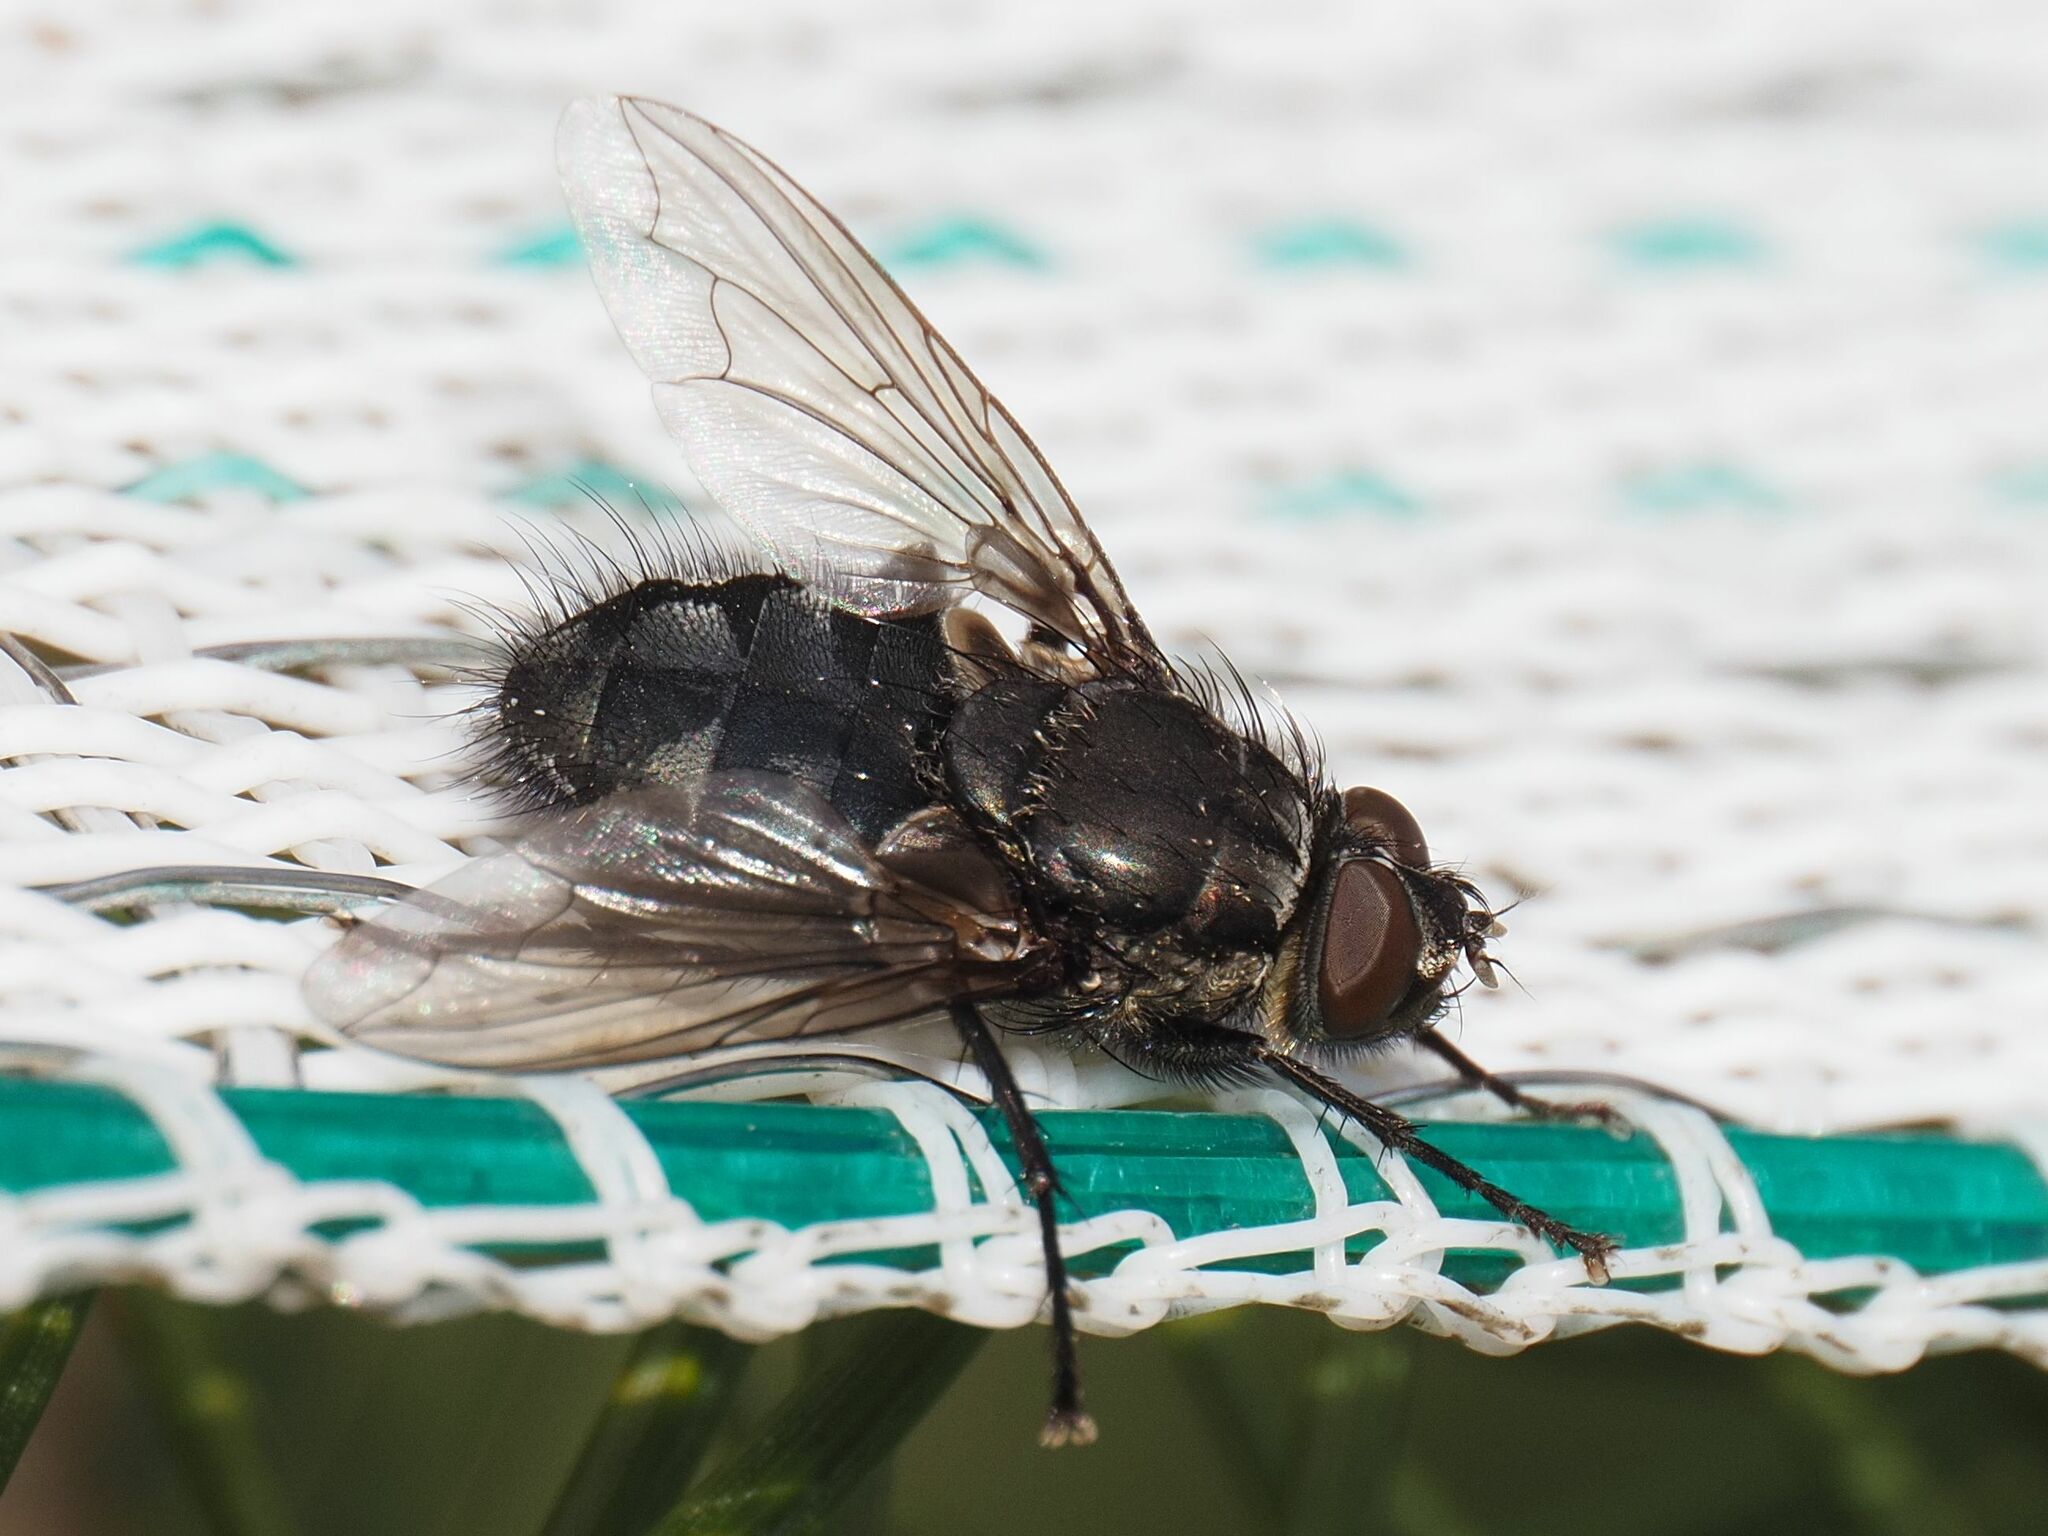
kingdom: Animalia
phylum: Arthropoda
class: Insecta
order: Diptera
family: Polleniidae
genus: Pollenia
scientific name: Pollenia vagabunda
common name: Vagabund cluster fly
